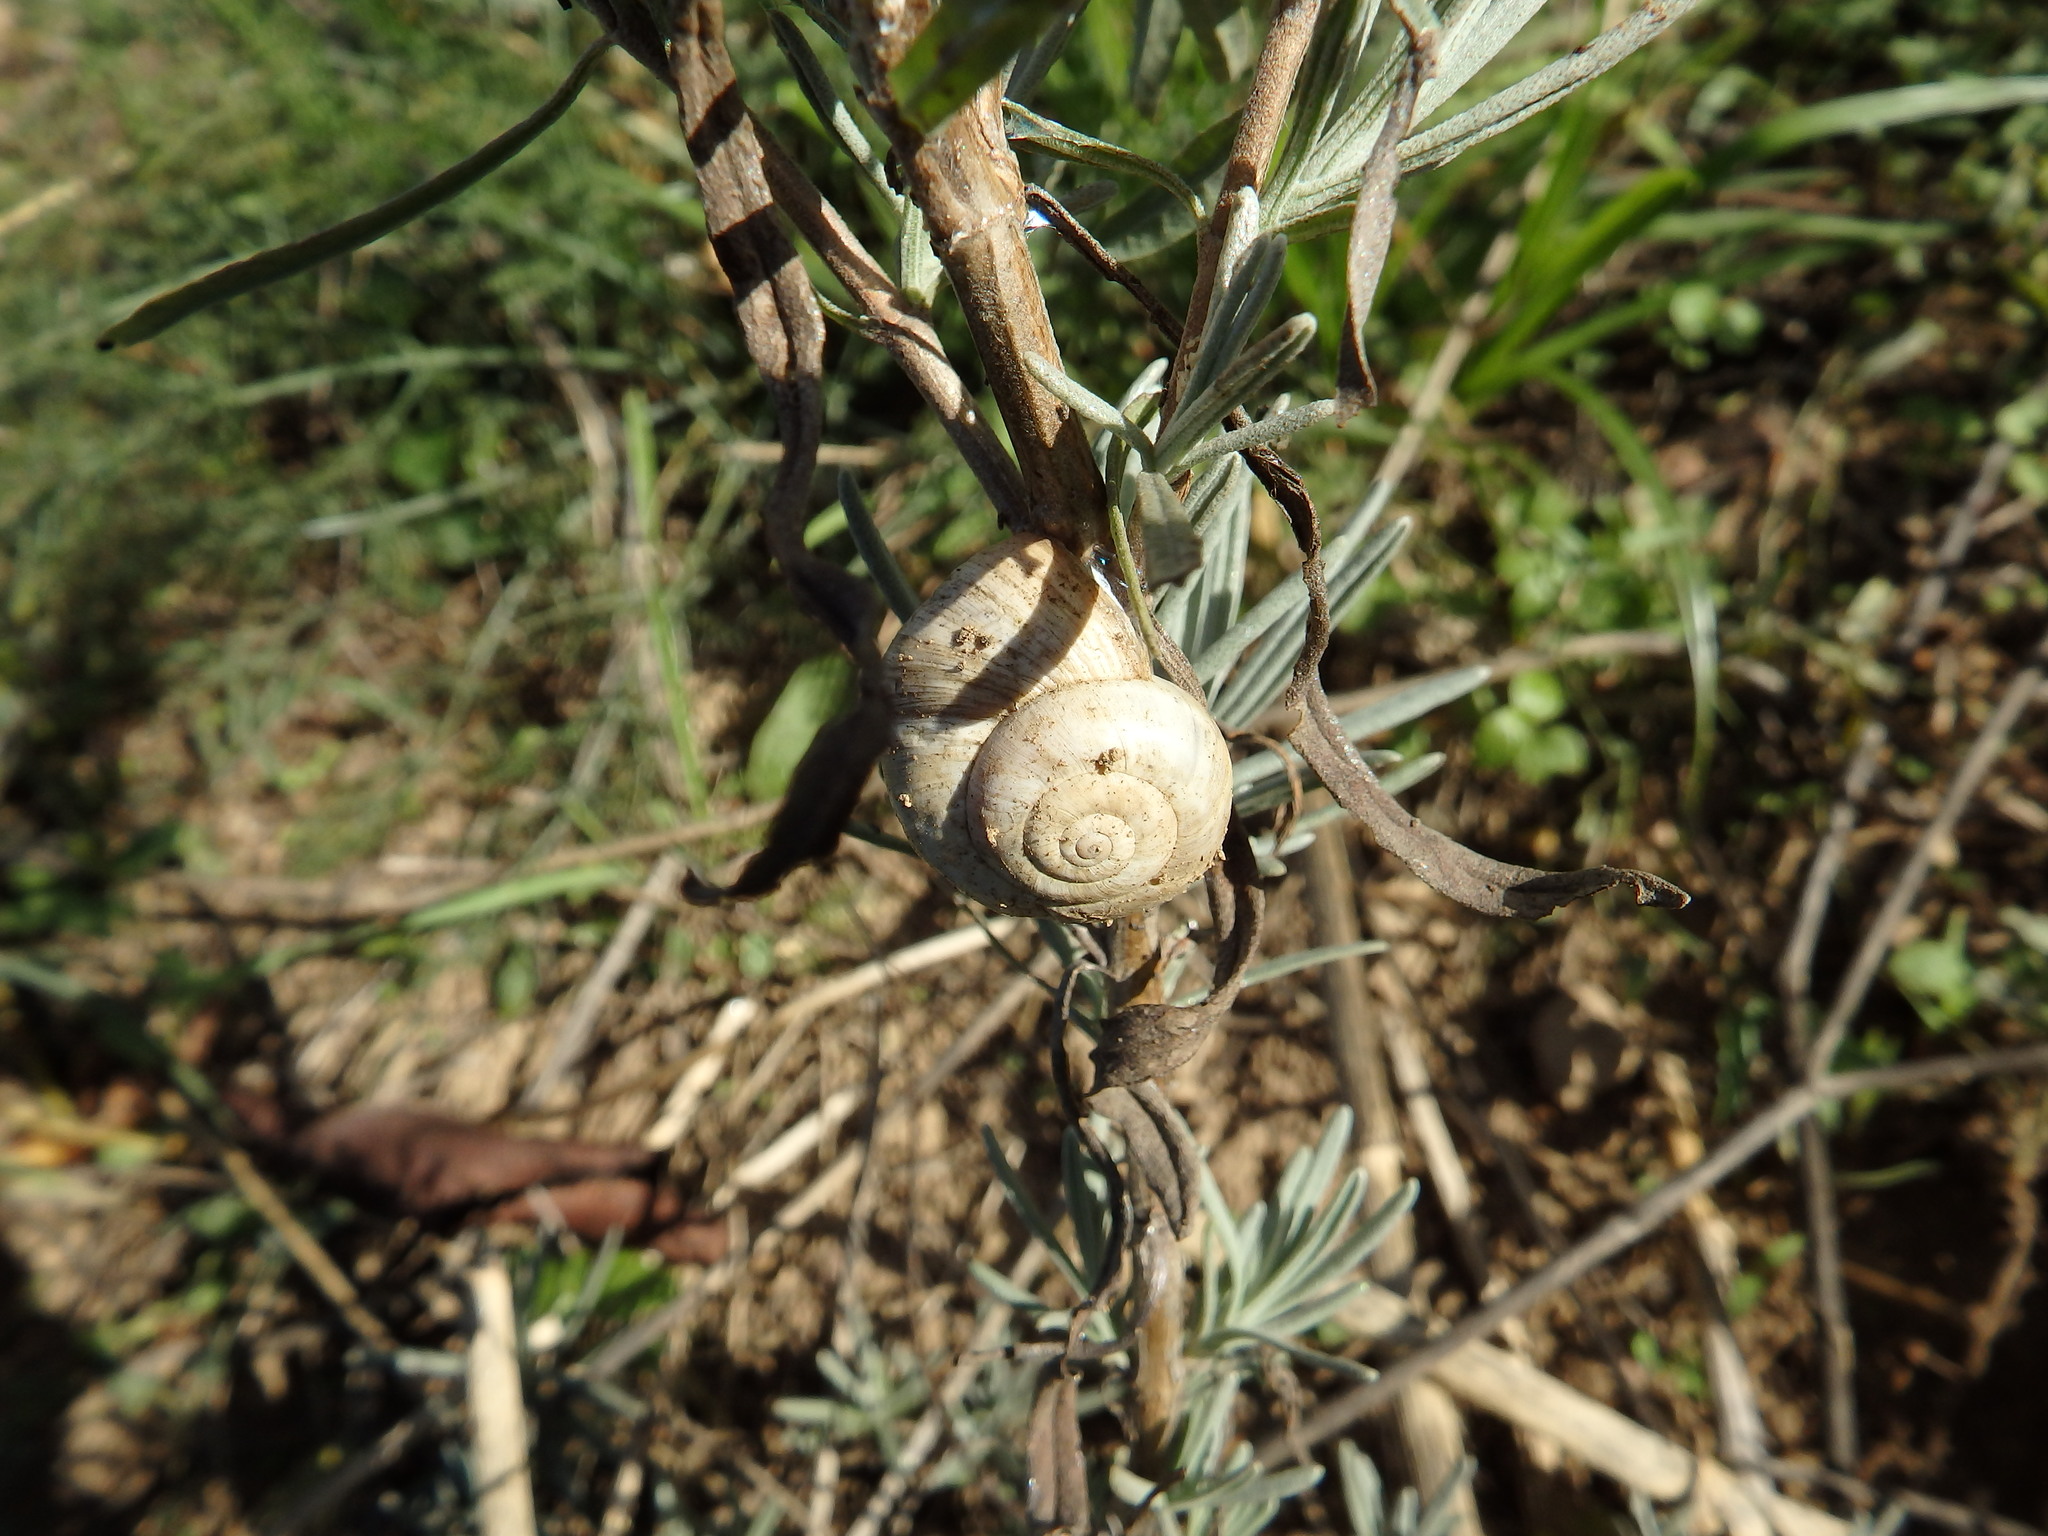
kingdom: Animalia
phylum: Mollusca
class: Gastropoda
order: Stylommatophora
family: Helicidae
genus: Theba
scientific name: Theba pisana
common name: White snail
